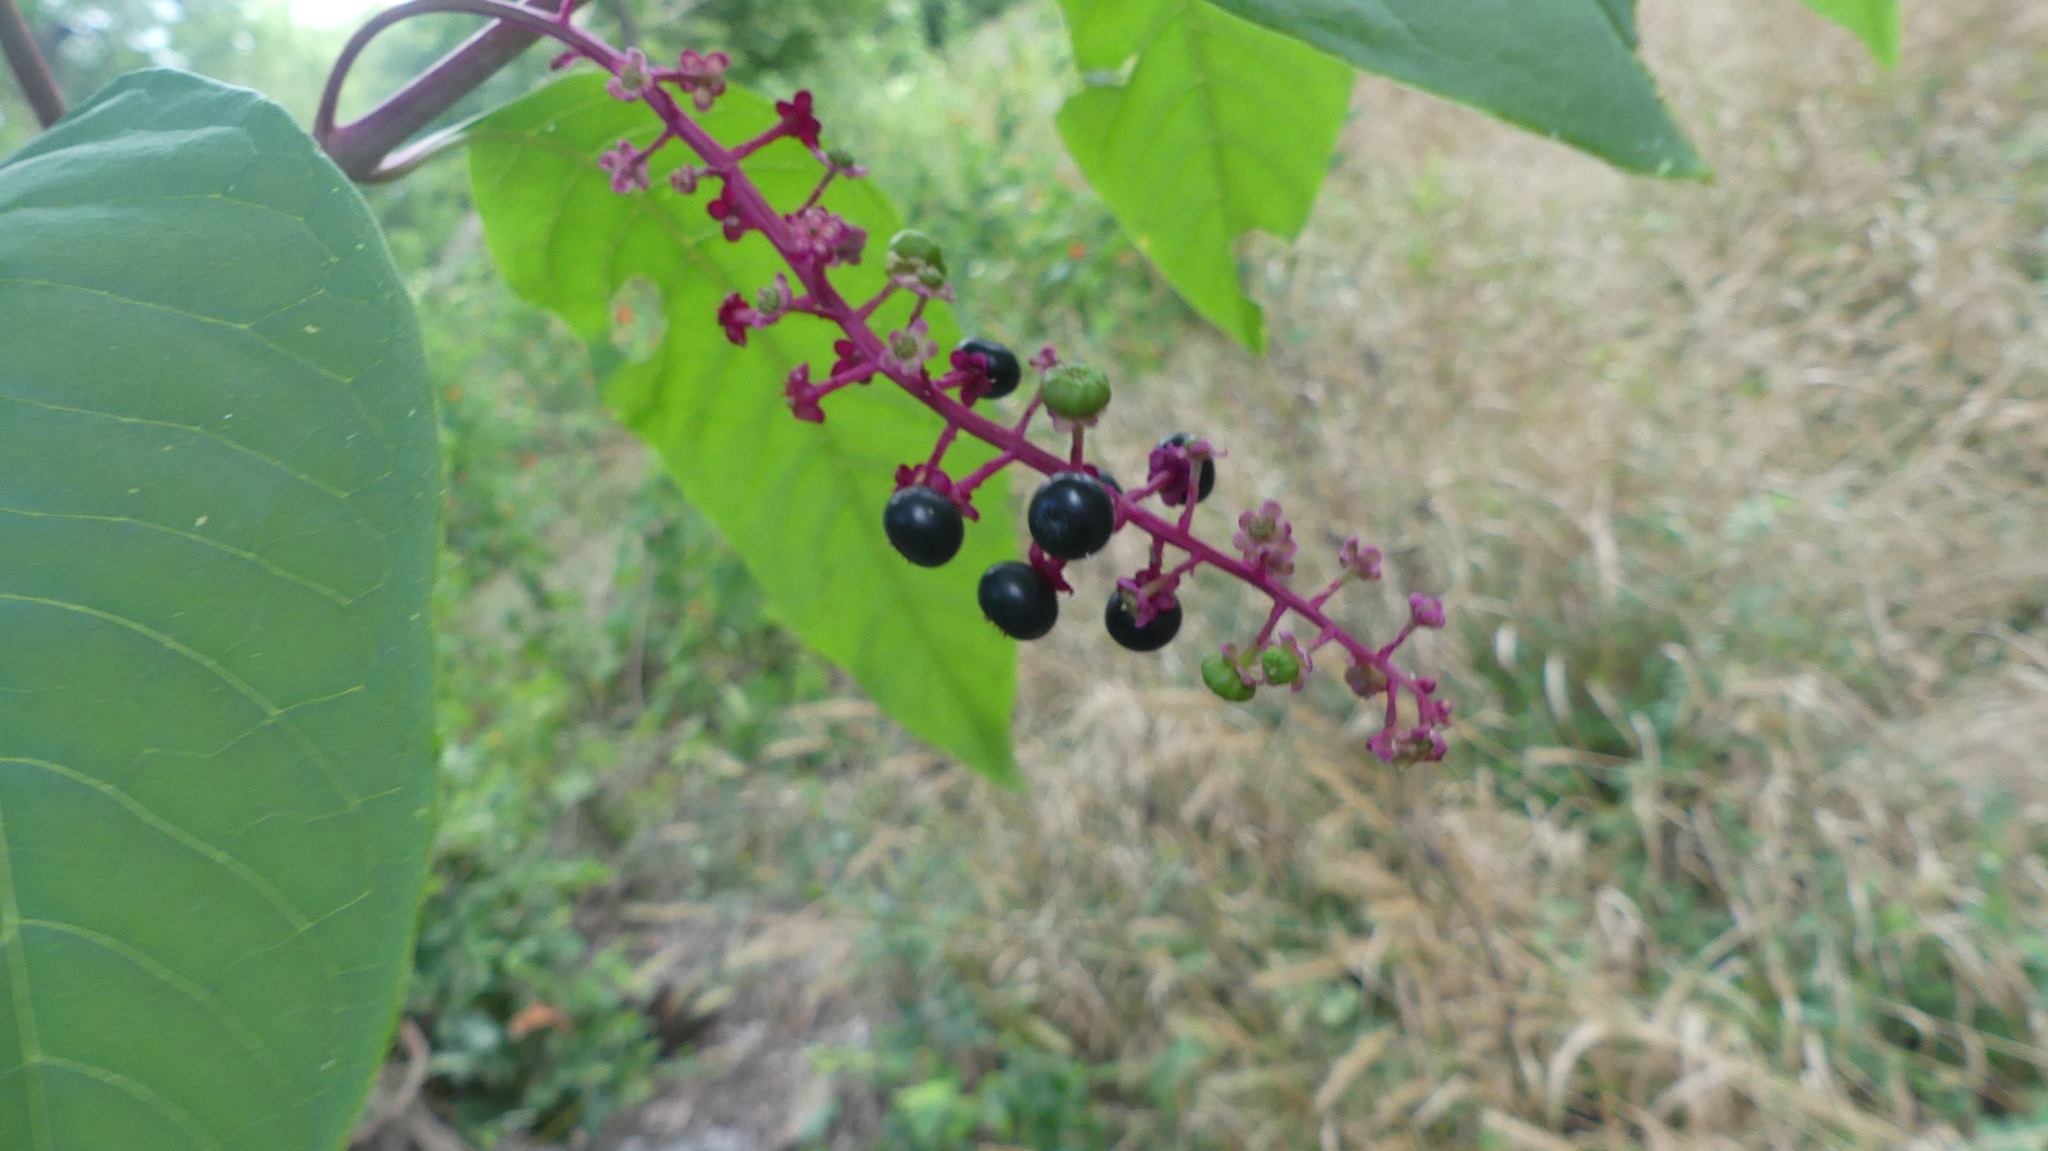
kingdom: Plantae
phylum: Tracheophyta
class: Magnoliopsida
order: Caryophyllales
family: Phytolaccaceae
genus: Phytolacca
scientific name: Phytolacca americana
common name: American pokeweed
